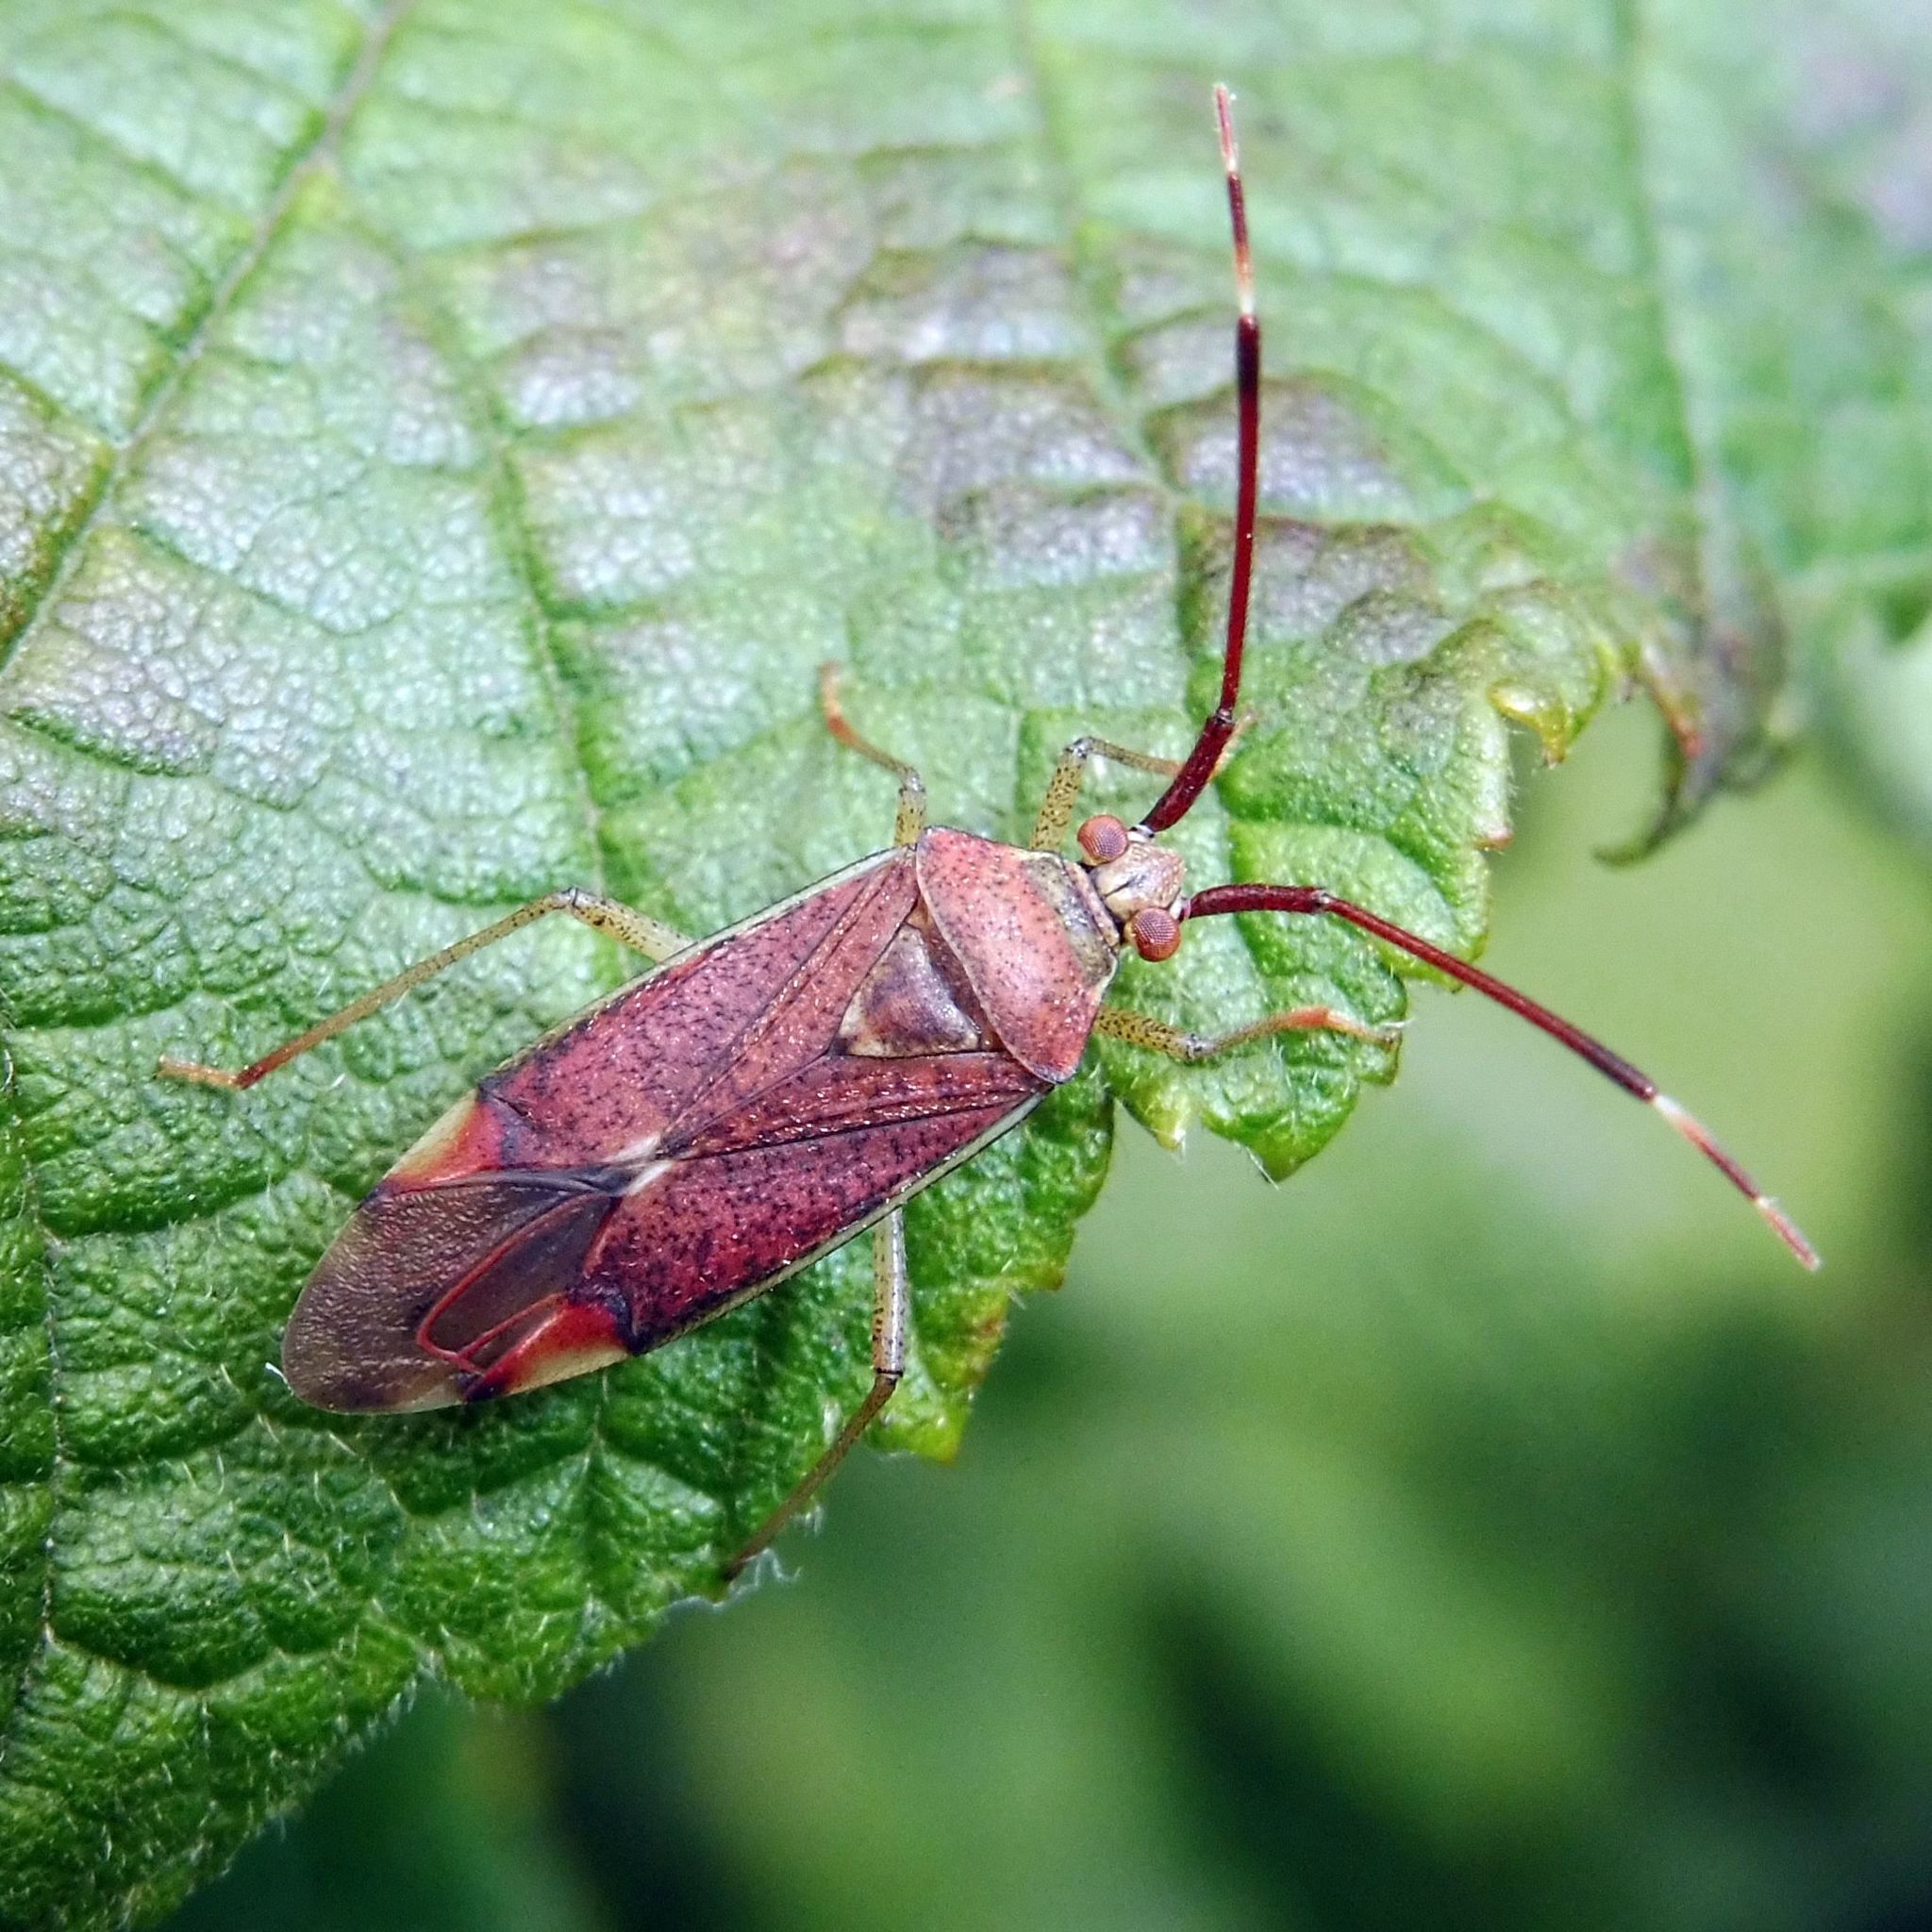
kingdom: Animalia
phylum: Arthropoda
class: Insecta
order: Hemiptera
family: Miridae
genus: Pantilius
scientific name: Pantilius tunicatus
